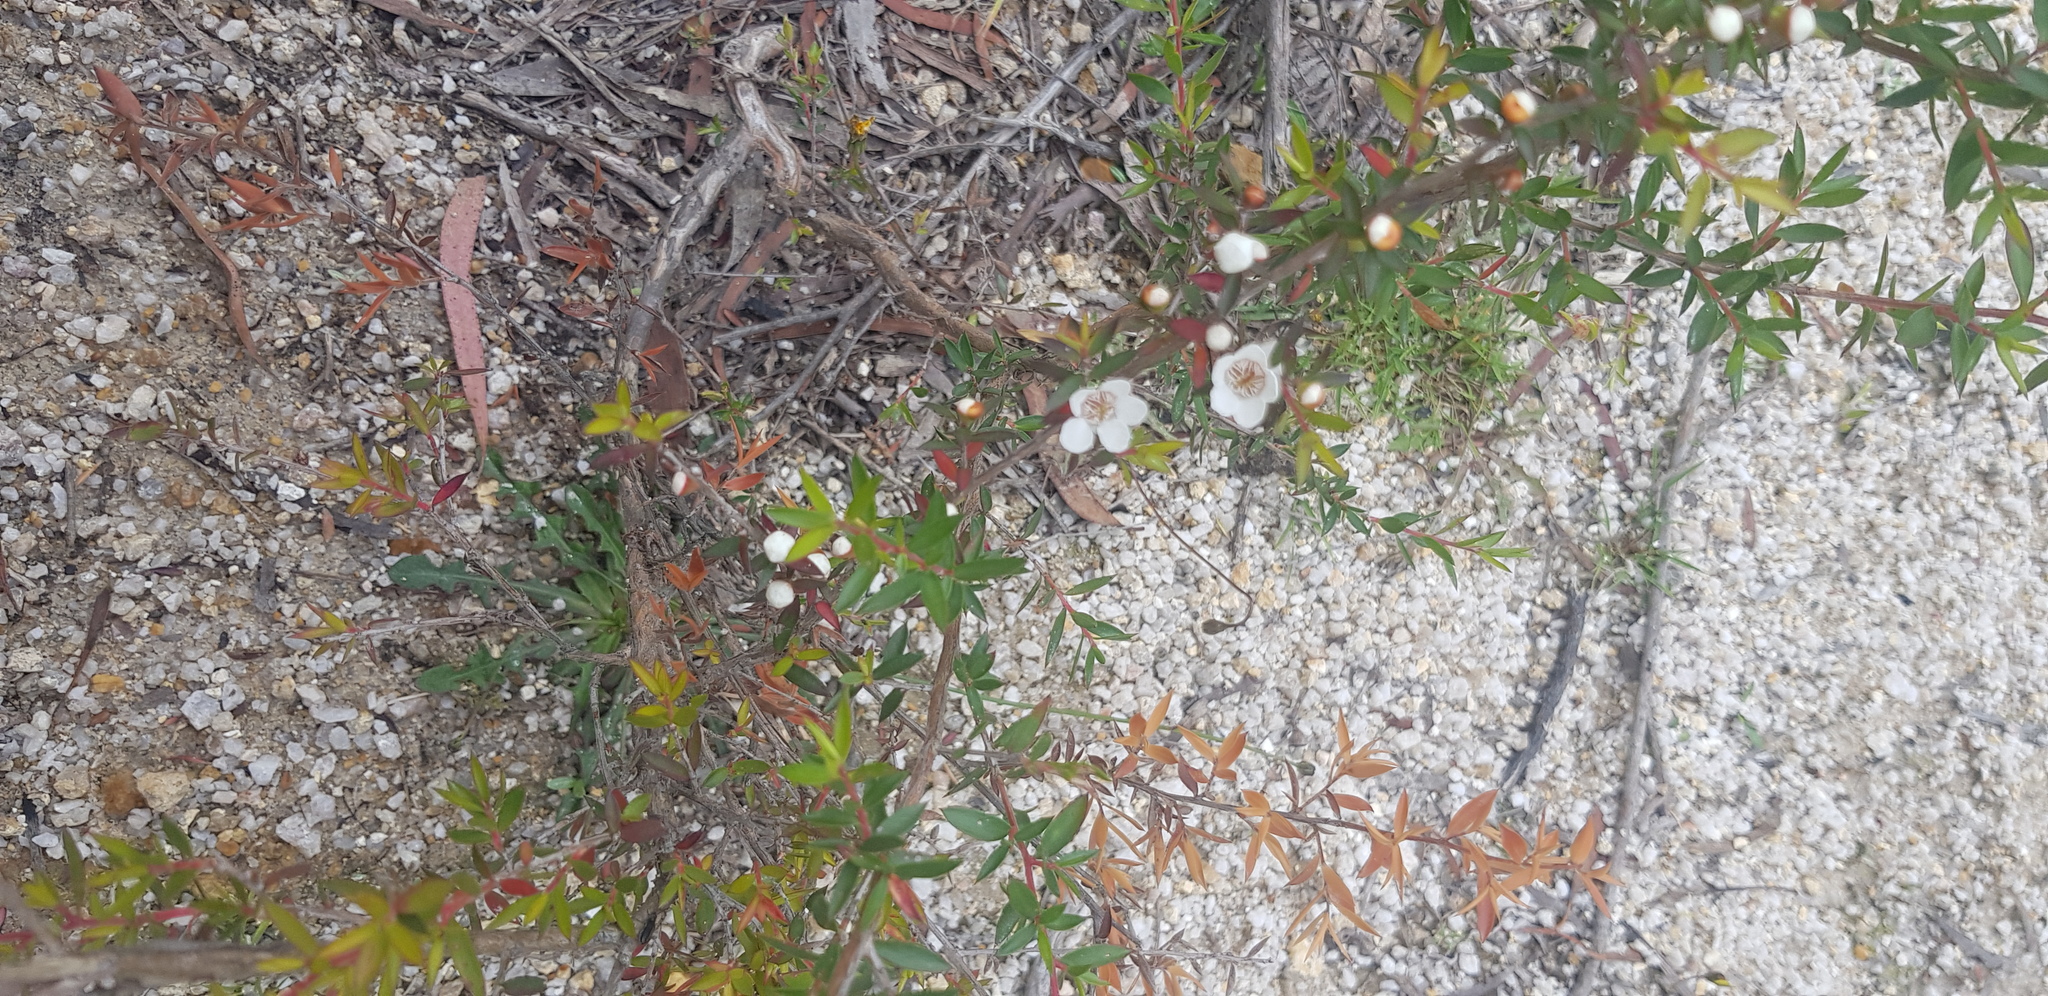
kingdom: Plantae
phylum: Tracheophyta
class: Magnoliopsida
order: Myrtales
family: Myrtaceae
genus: Leptospermum
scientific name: Leptospermum scoparium
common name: Broom tea-tree
